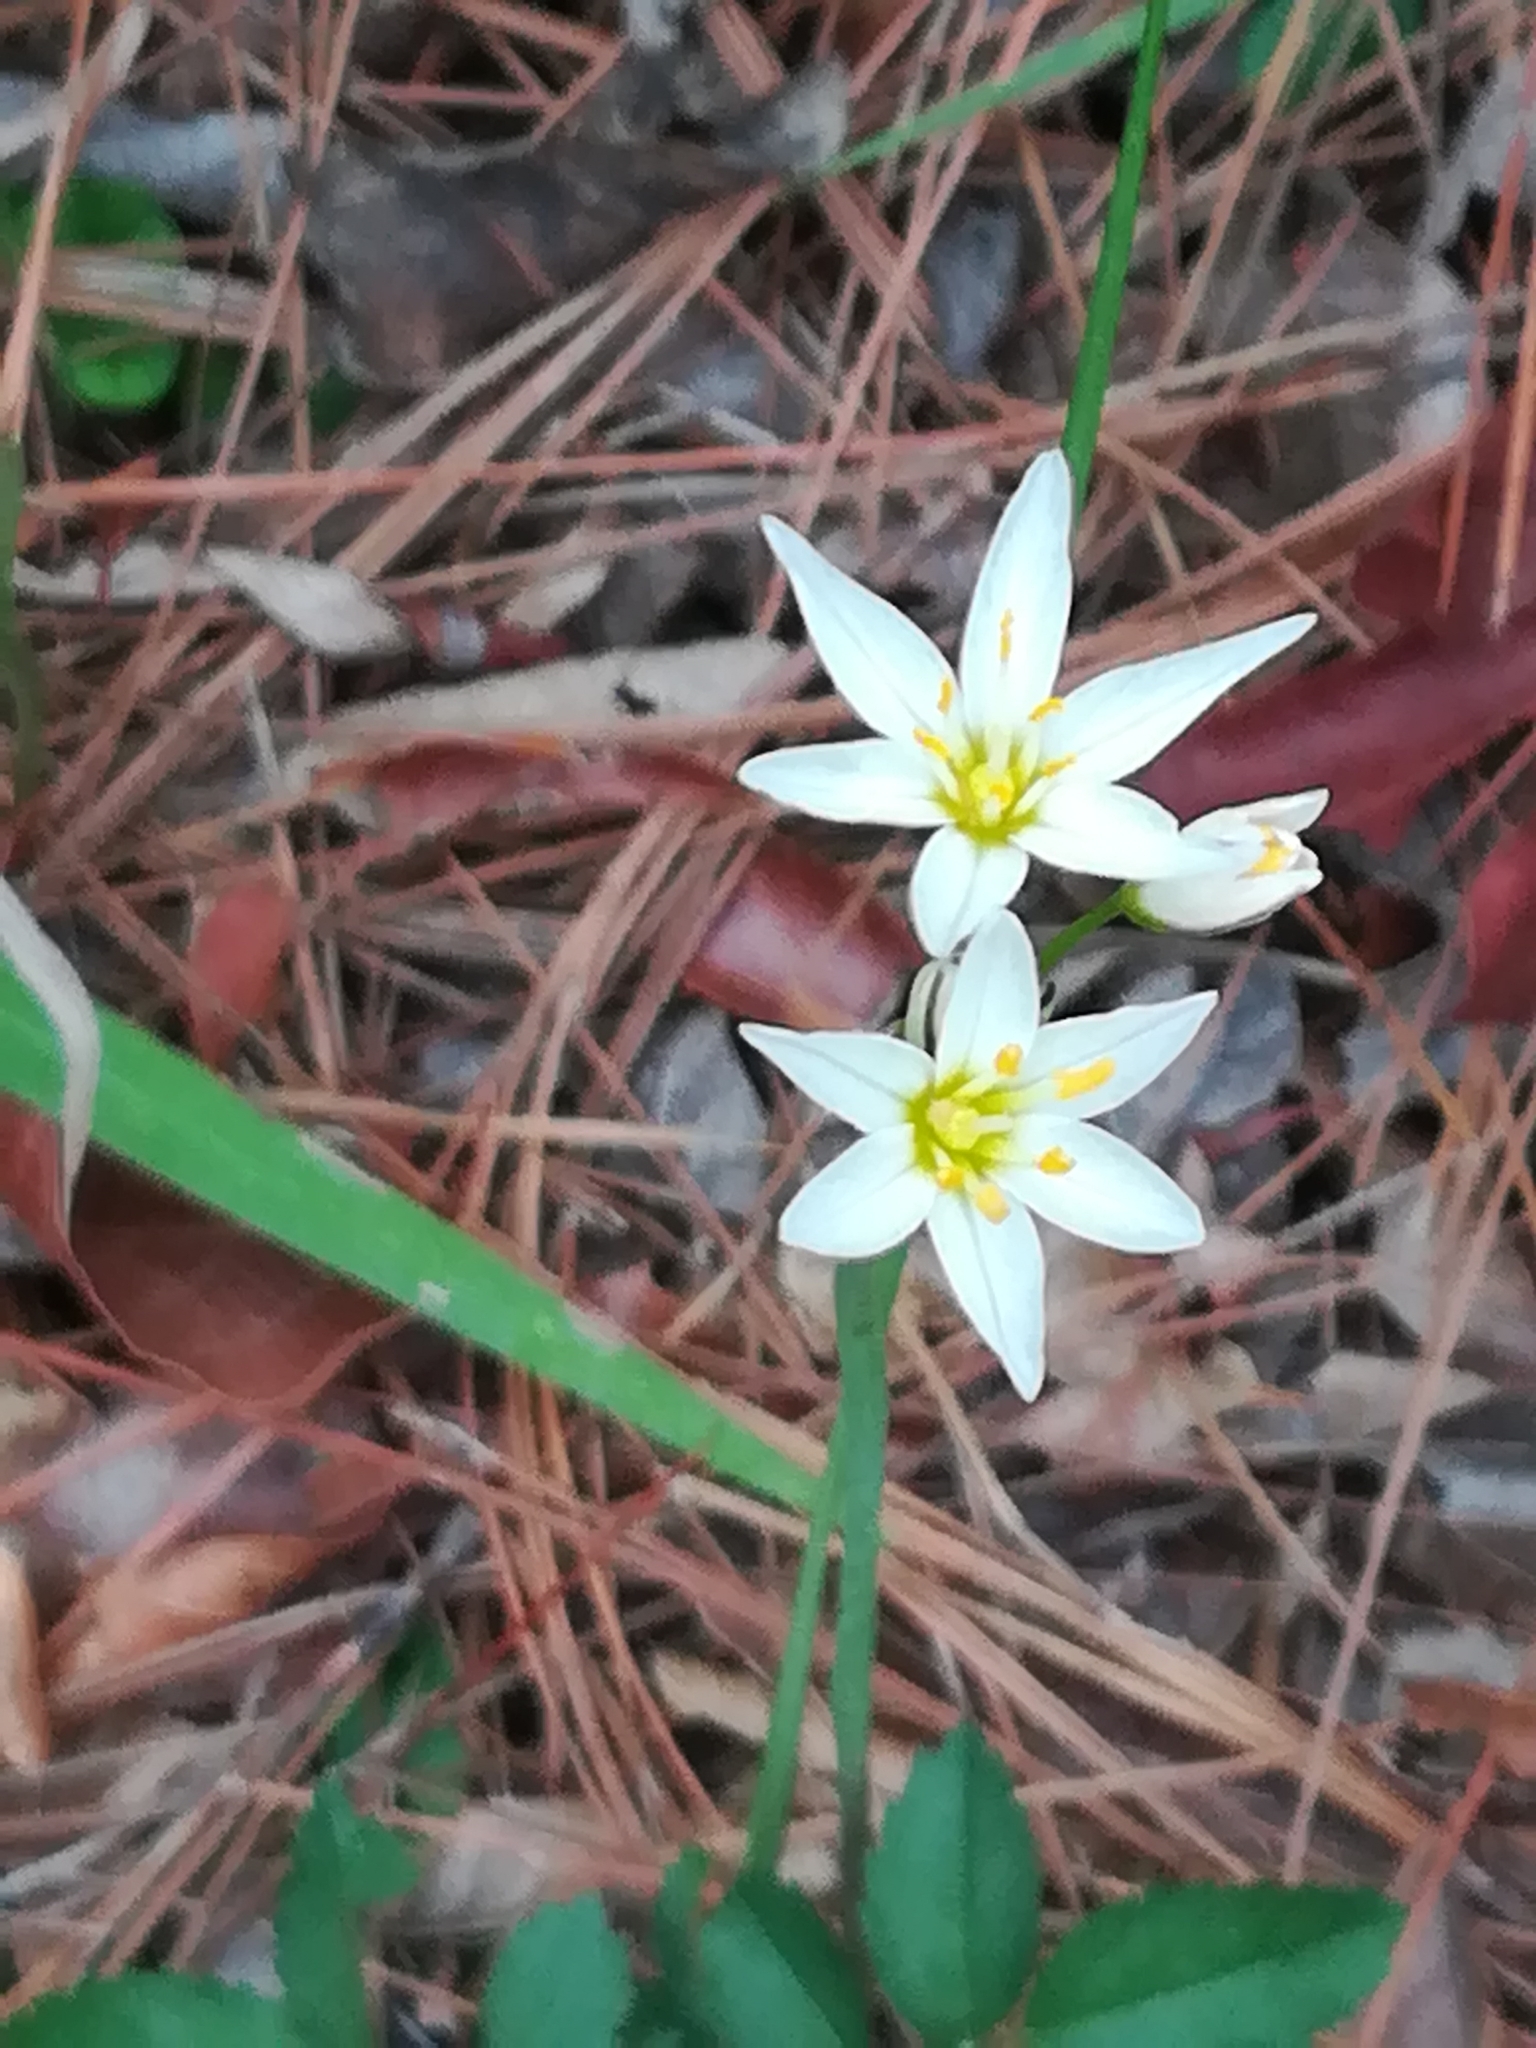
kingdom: Plantae
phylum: Tracheophyta
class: Liliopsida
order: Asparagales
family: Amaryllidaceae
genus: Nothoscordum
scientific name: Nothoscordum bivalve
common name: Crow-poison
